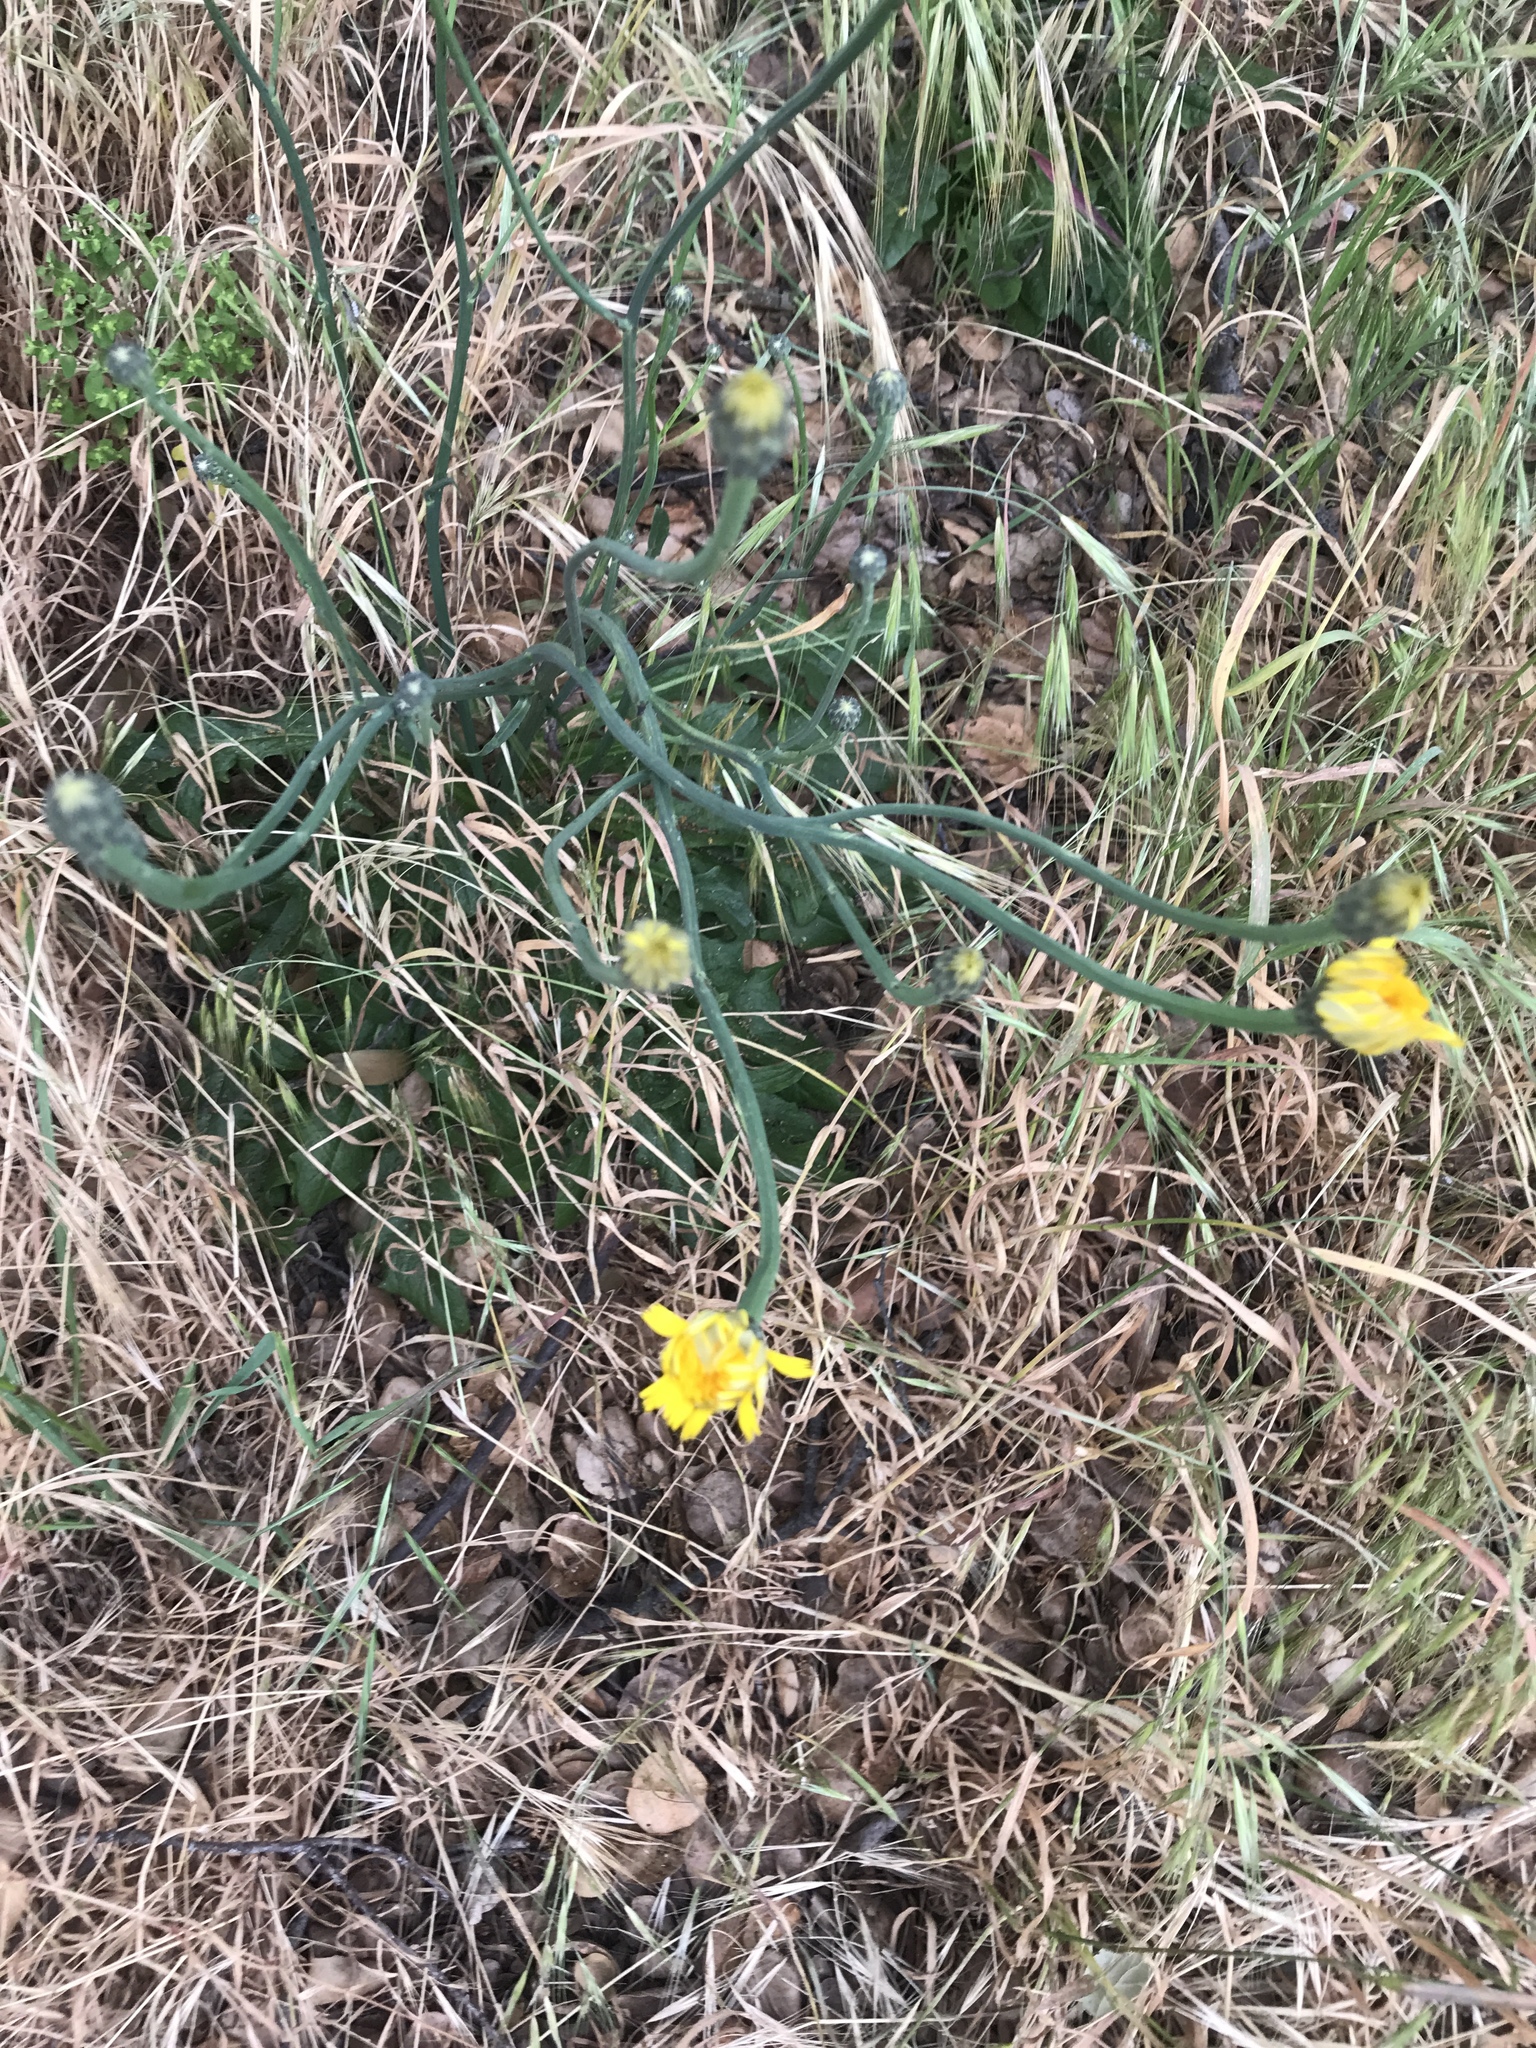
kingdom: Plantae
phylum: Tracheophyta
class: Magnoliopsida
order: Asterales
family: Asteraceae
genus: Hypochaeris
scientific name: Hypochaeris radicata
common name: Flatweed
